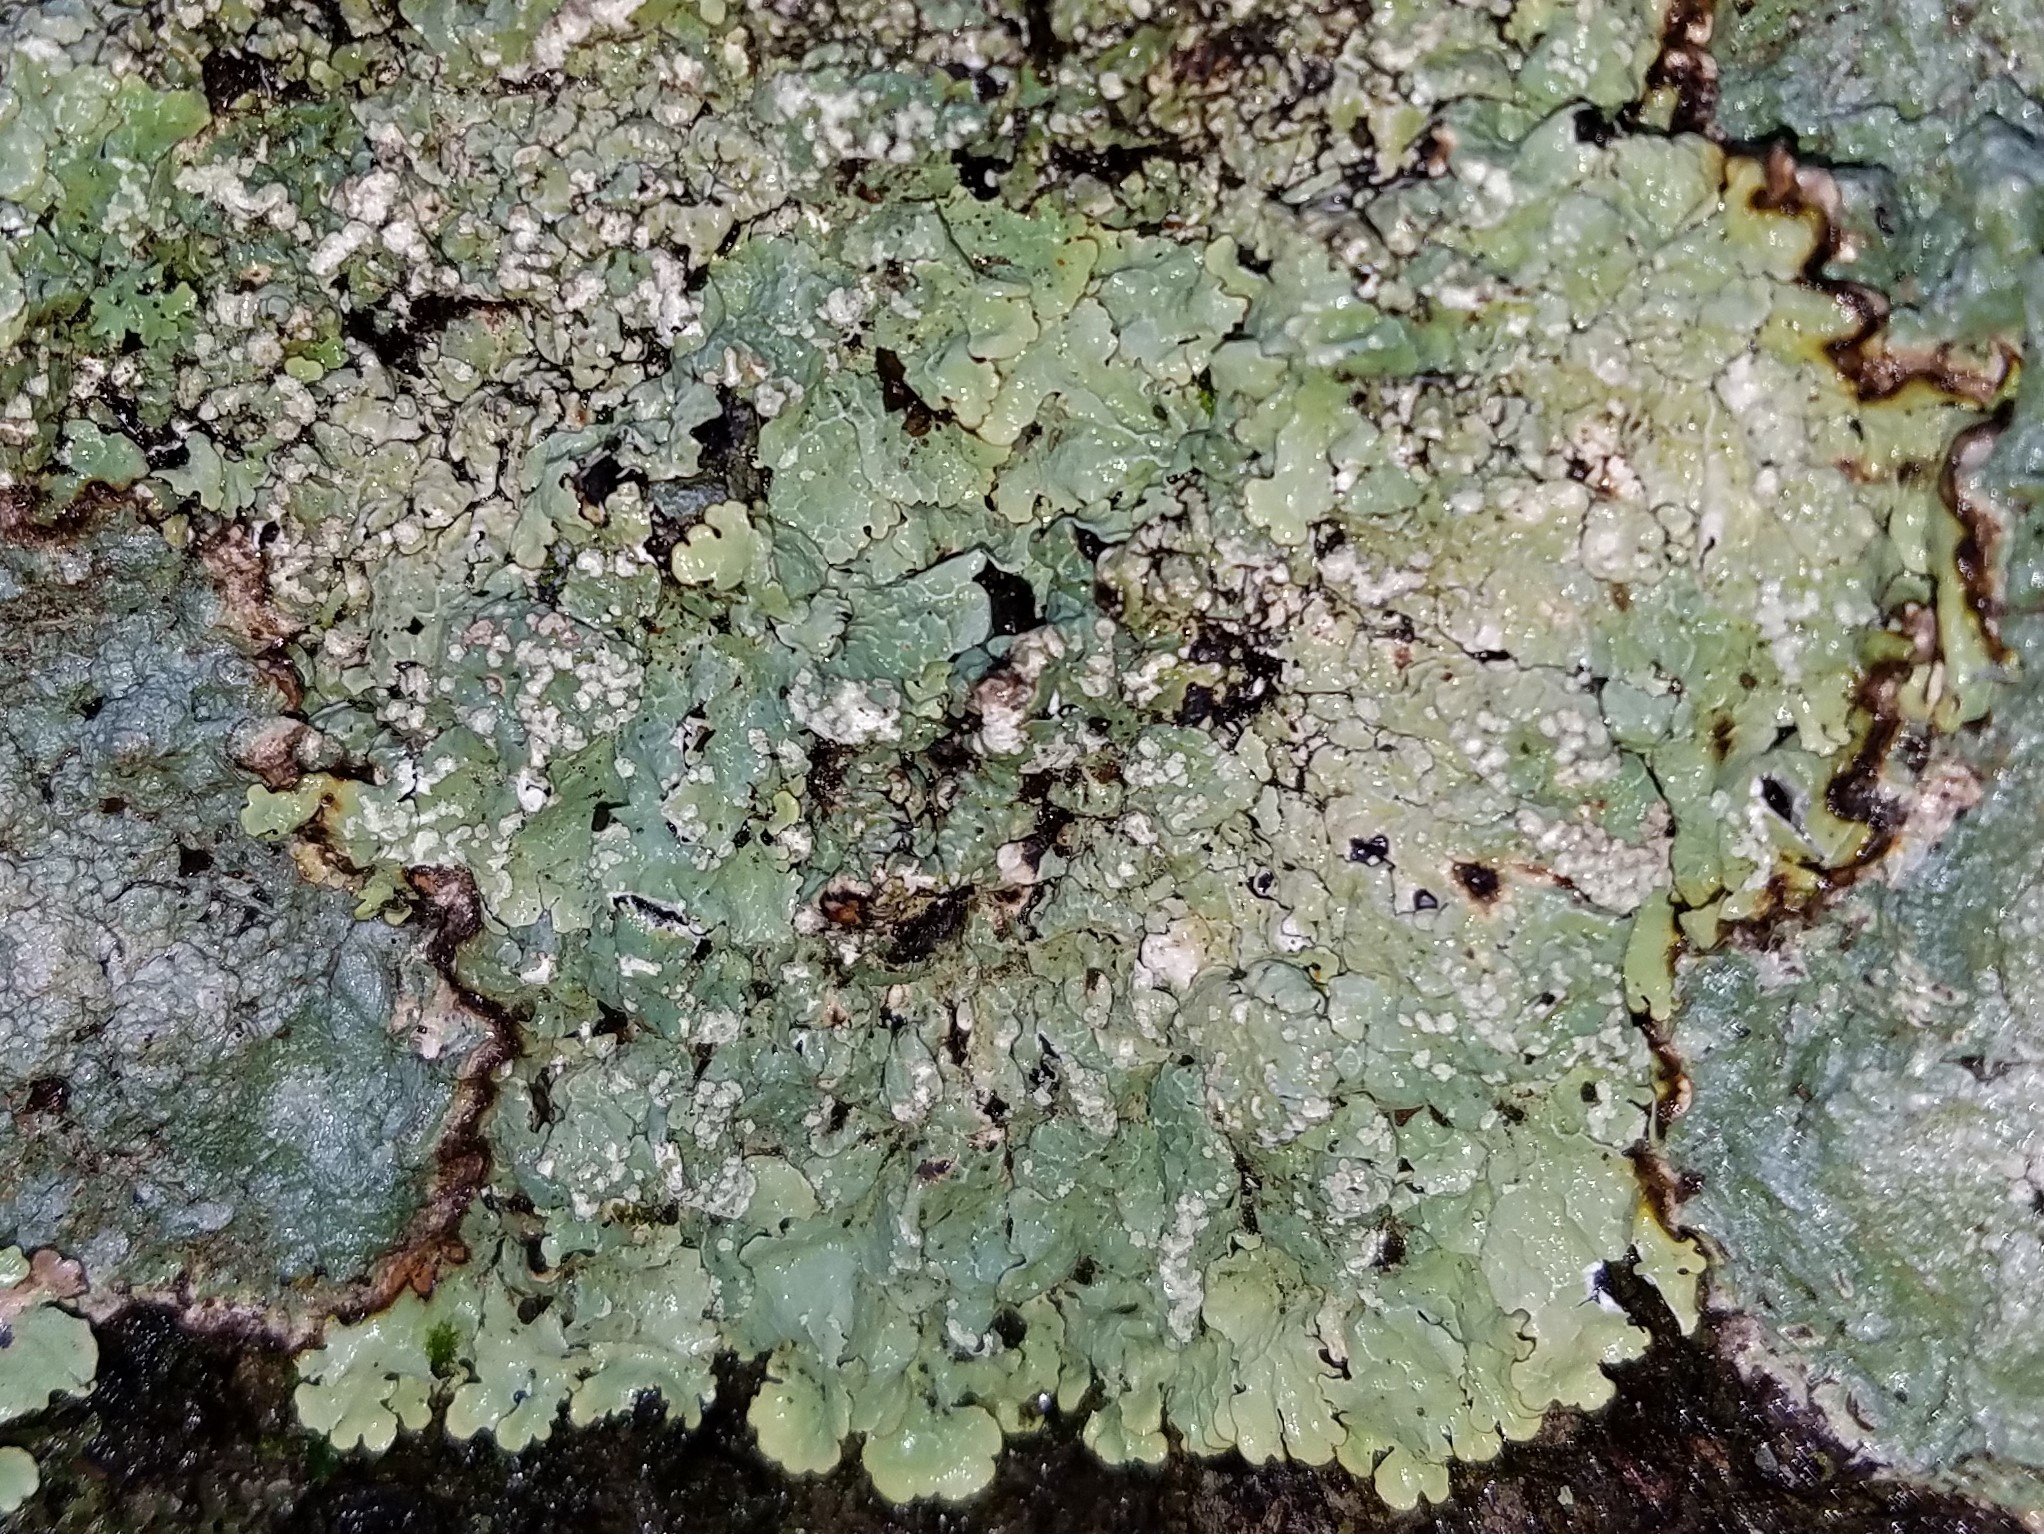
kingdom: Fungi
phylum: Ascomycota
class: Lecanoromycetes
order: Lecanorales
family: Parmeliaceae
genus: Crespoa
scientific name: Crespoa crozalsiana
